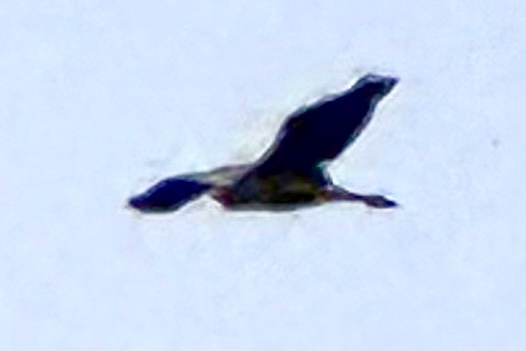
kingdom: Animalia
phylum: Chordata
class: Aves
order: Pelecaniformes
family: Ardeidae
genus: Ardea
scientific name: Ardea herodias
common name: Great blue heron
